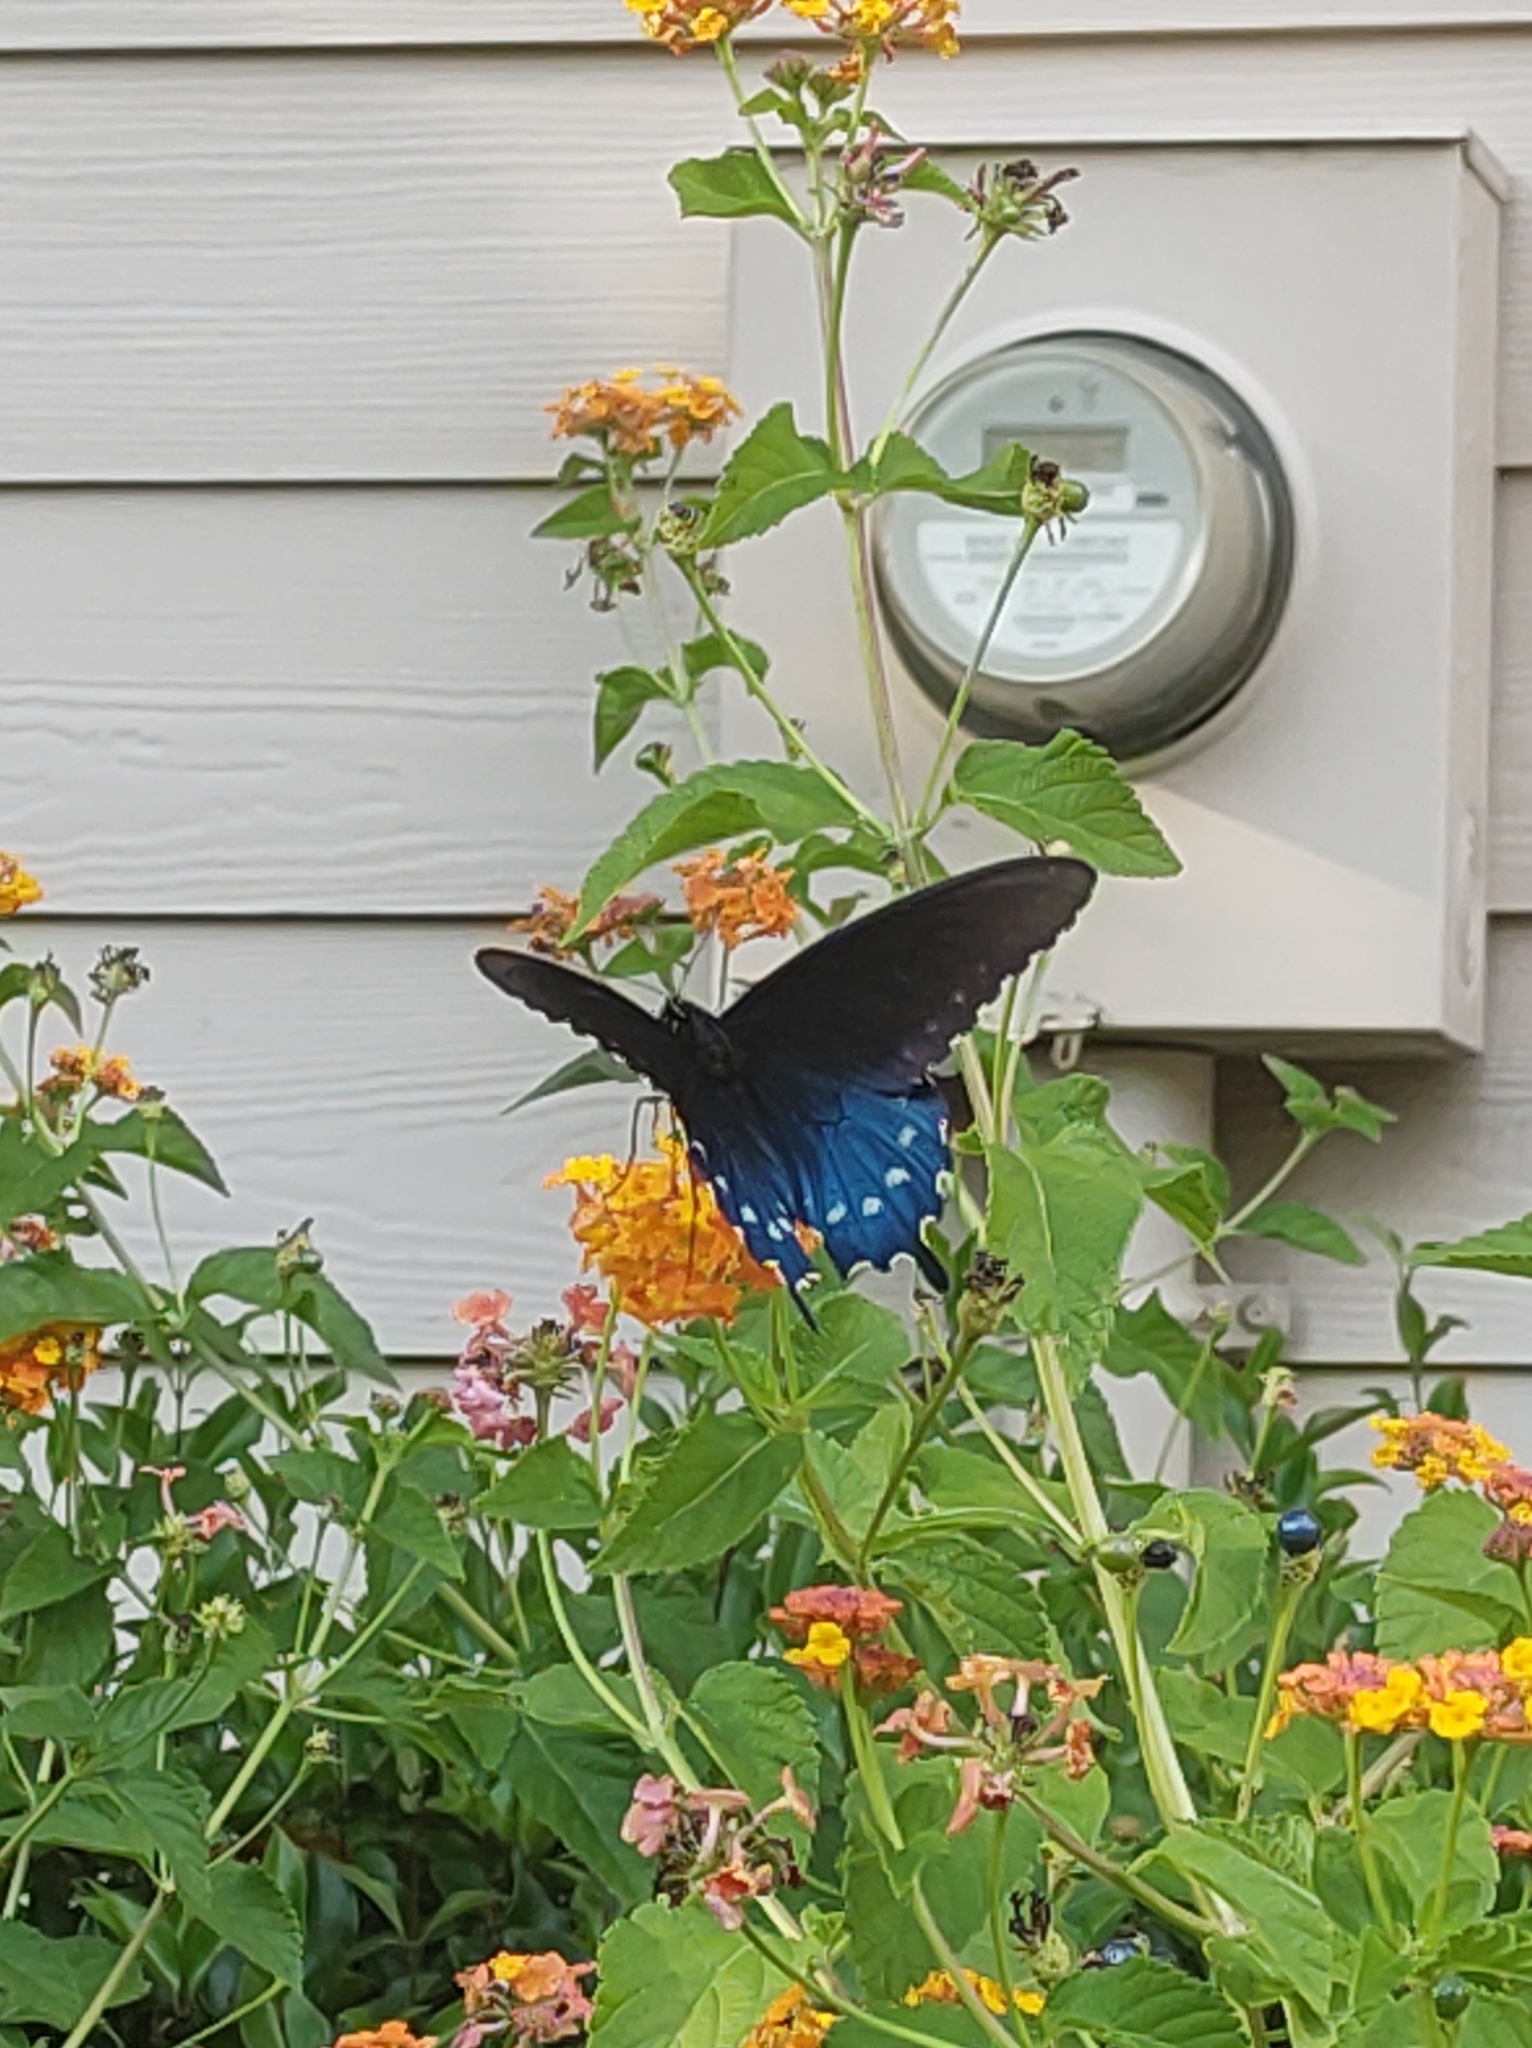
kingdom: Animalia
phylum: Arthropoda
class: Insecta
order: Lepidoptera
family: Papilionidae
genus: Battus
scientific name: Battus philenor
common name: Pipevine swallowtail
